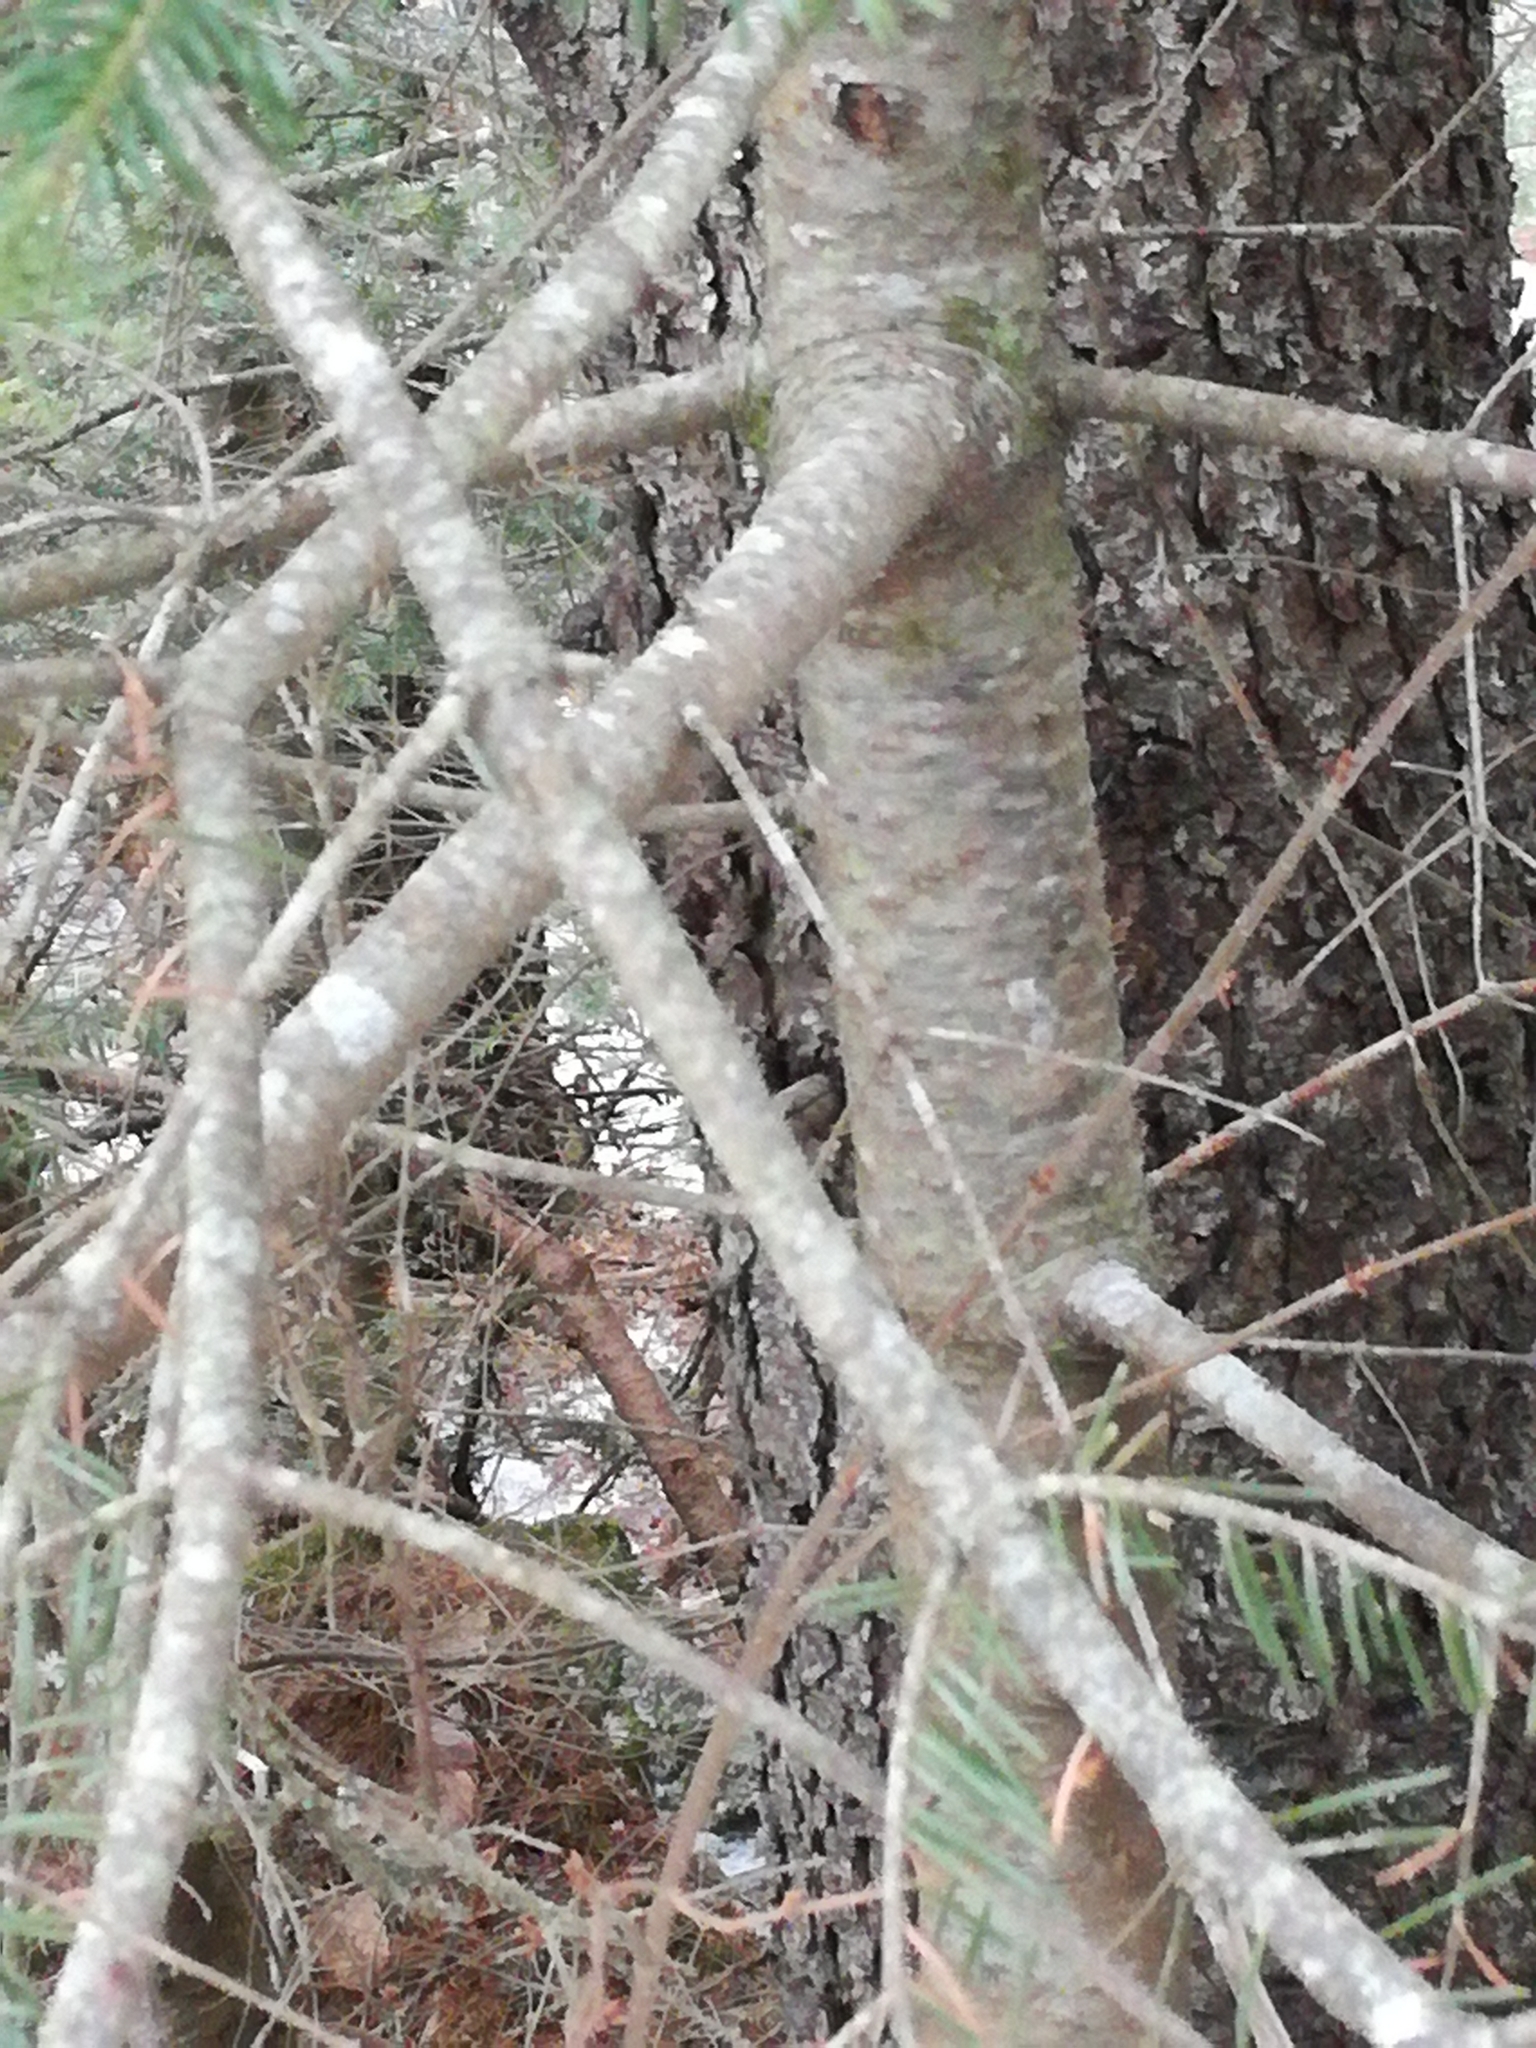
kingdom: Plantae
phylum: Tracheophyta
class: Pinopsida
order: Pinales
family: Pinaceae
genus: Abies
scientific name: Abies balsamea
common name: Balsam fir
